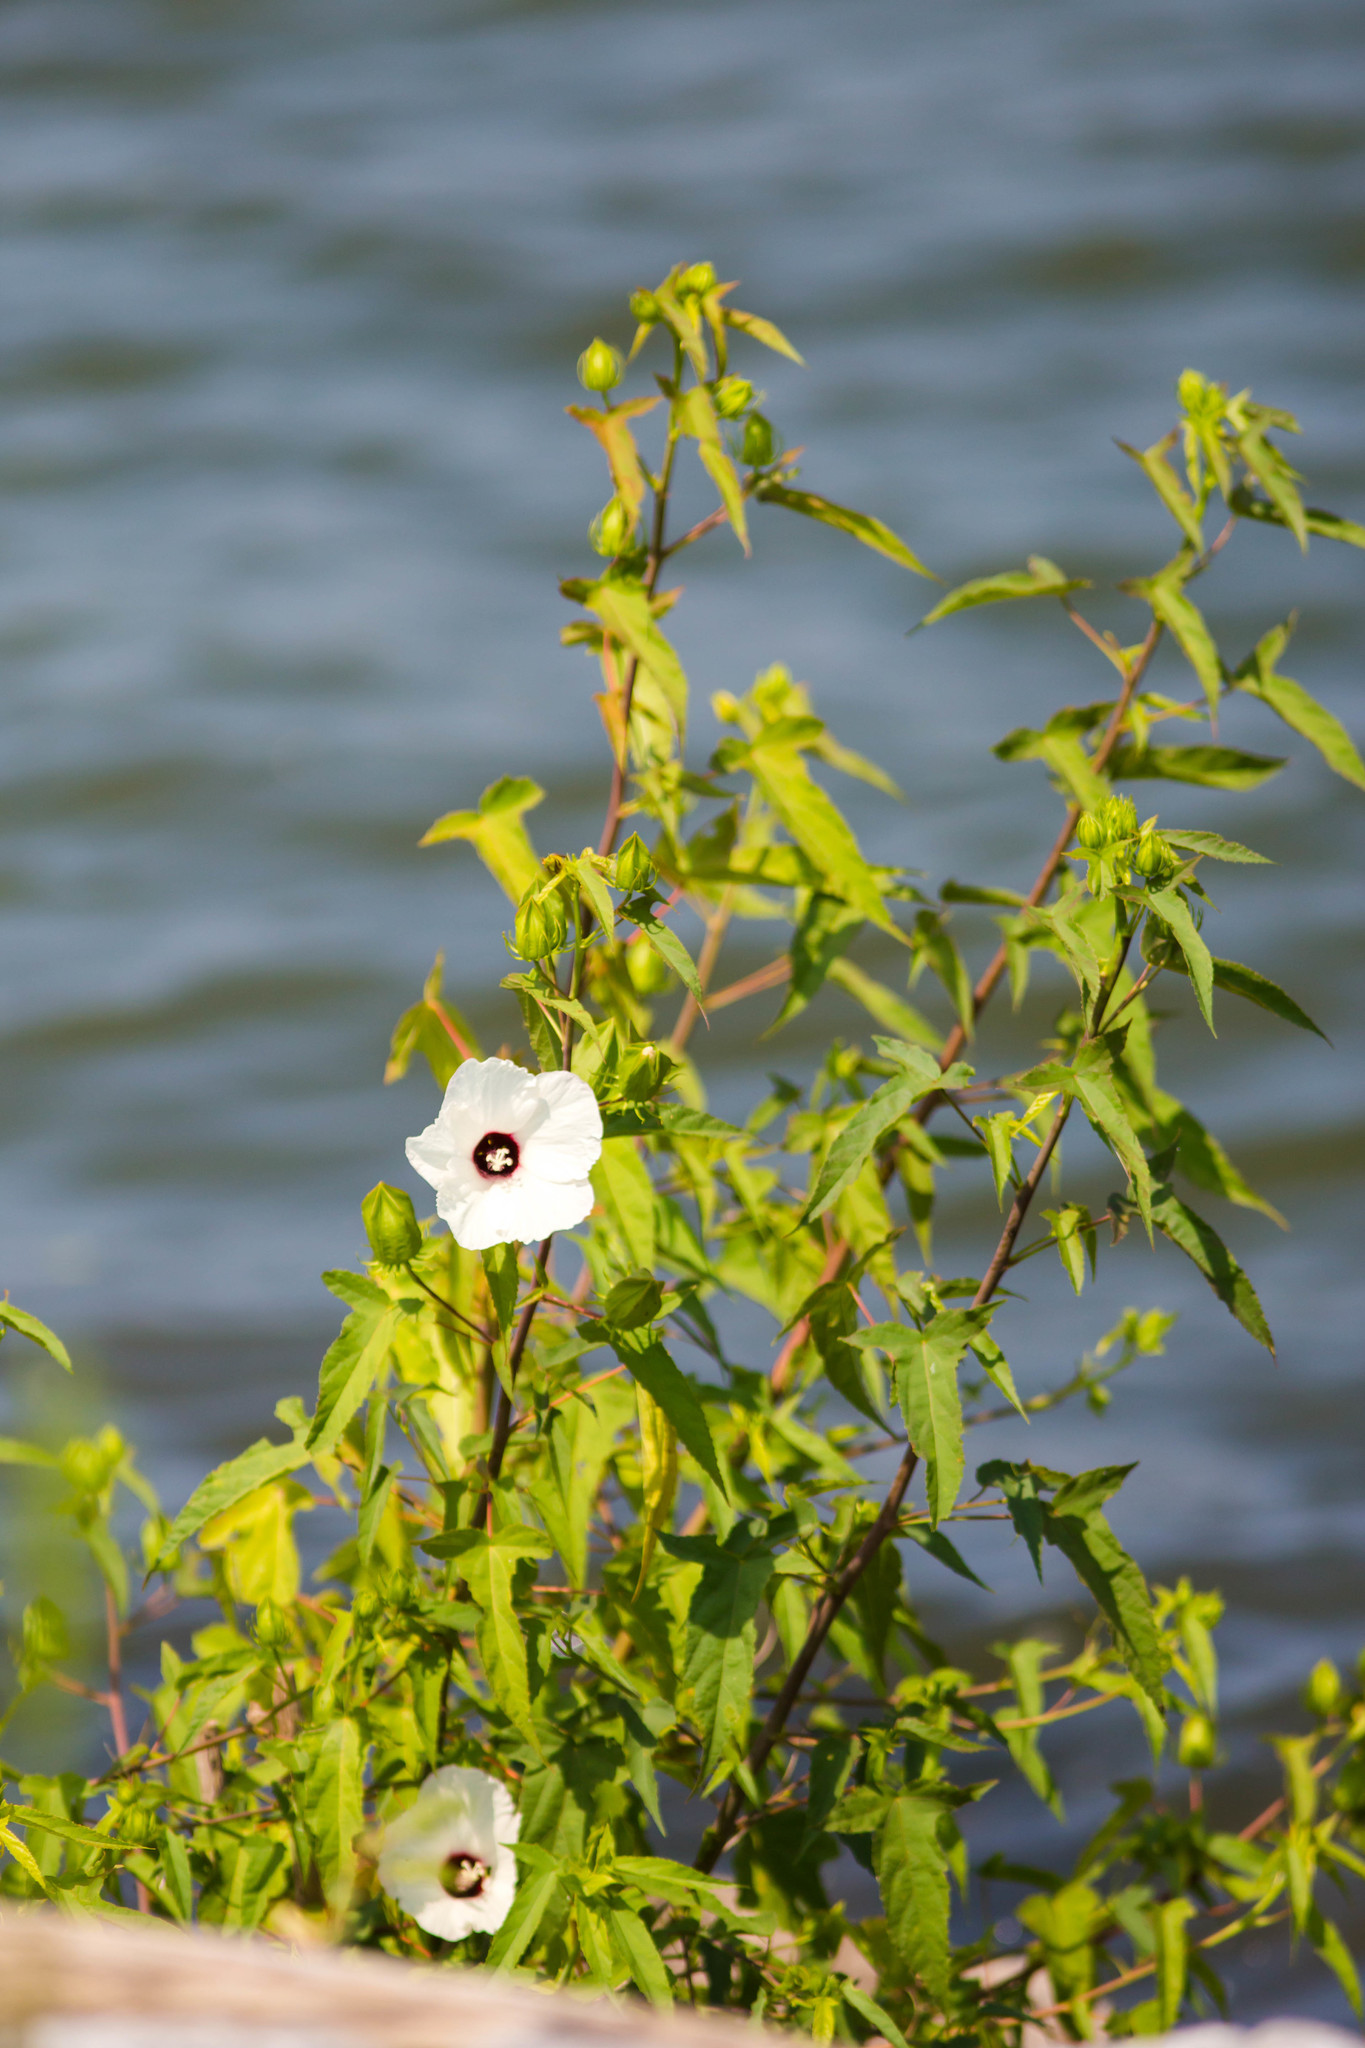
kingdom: Plantae
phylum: Tracheophyta
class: Magnoliopsida
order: Malvales
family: Malvaceae
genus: Hibiscus
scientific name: Hibiscus laevis
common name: Scarlet rose-mallow
